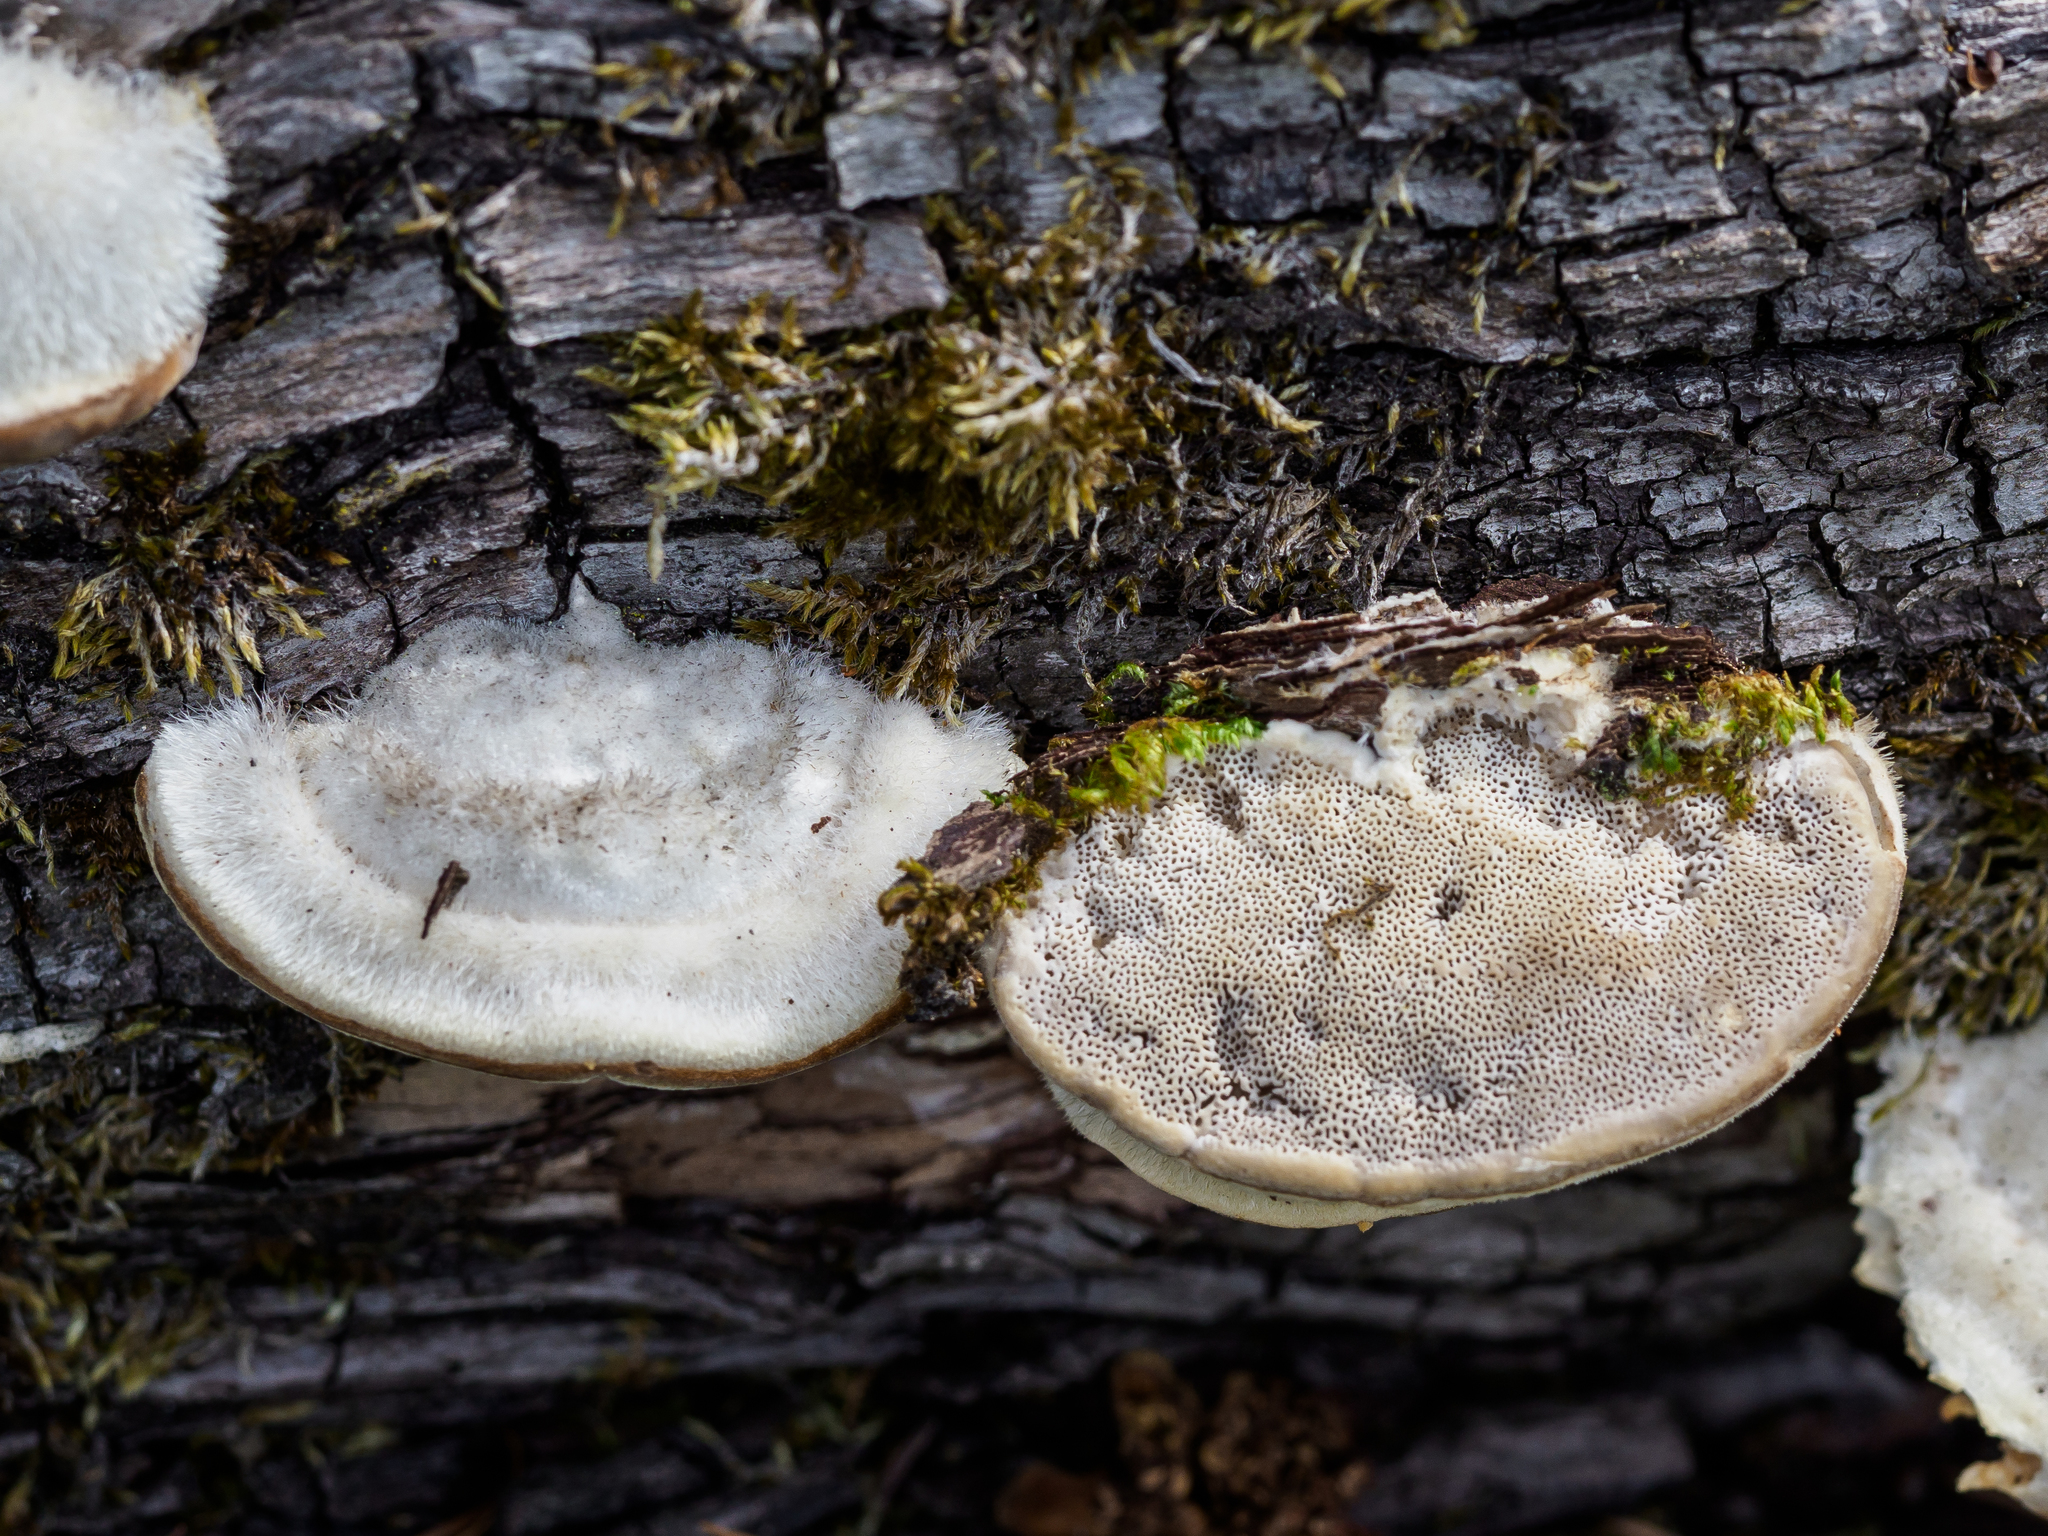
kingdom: Fungi
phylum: Basidiomycota
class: Agaricomycetes
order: Polyporales
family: Polyporaceae
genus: Trametes
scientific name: Trametes hirsuta
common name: Hairy bracket
